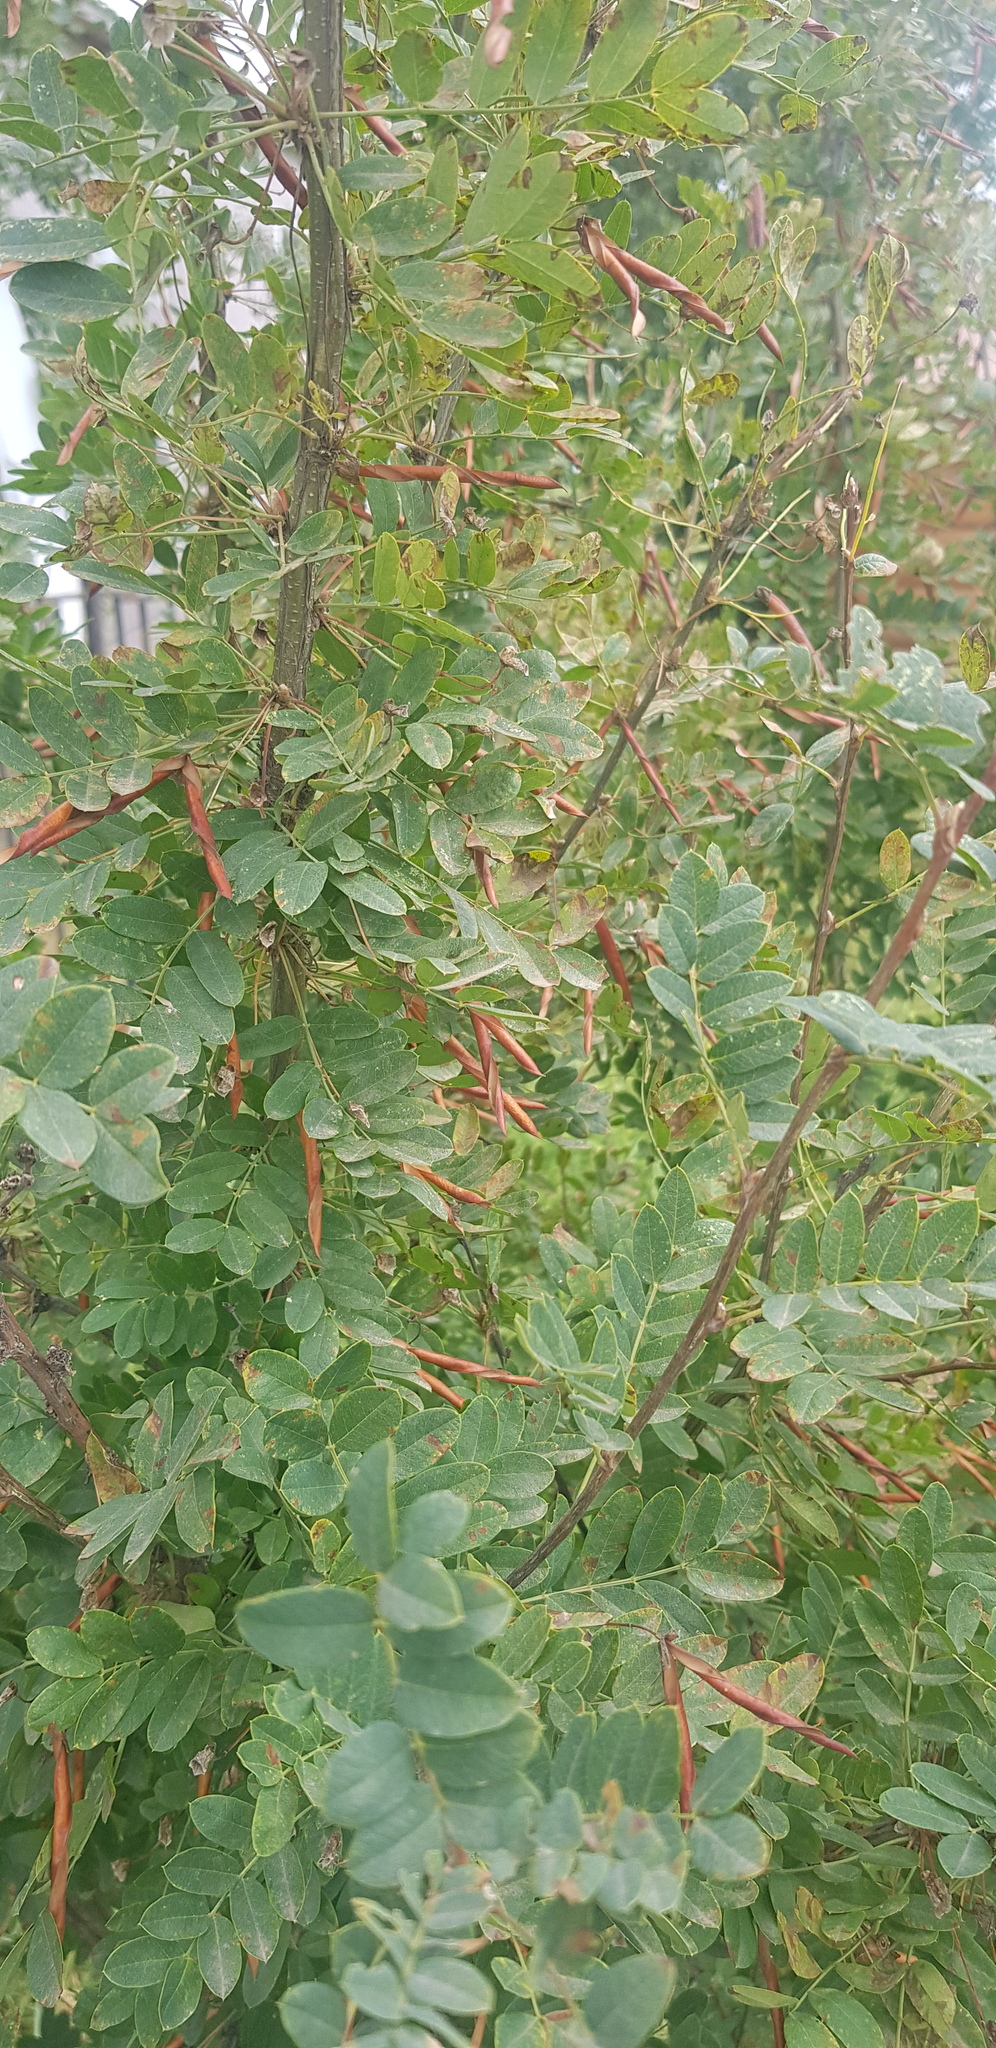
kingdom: Plantae
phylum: Tracheophyta
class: Magnoliopsida
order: Fabales
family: Fabaceae
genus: Caragana
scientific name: Caragana arborescens
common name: Siberian peashrub
